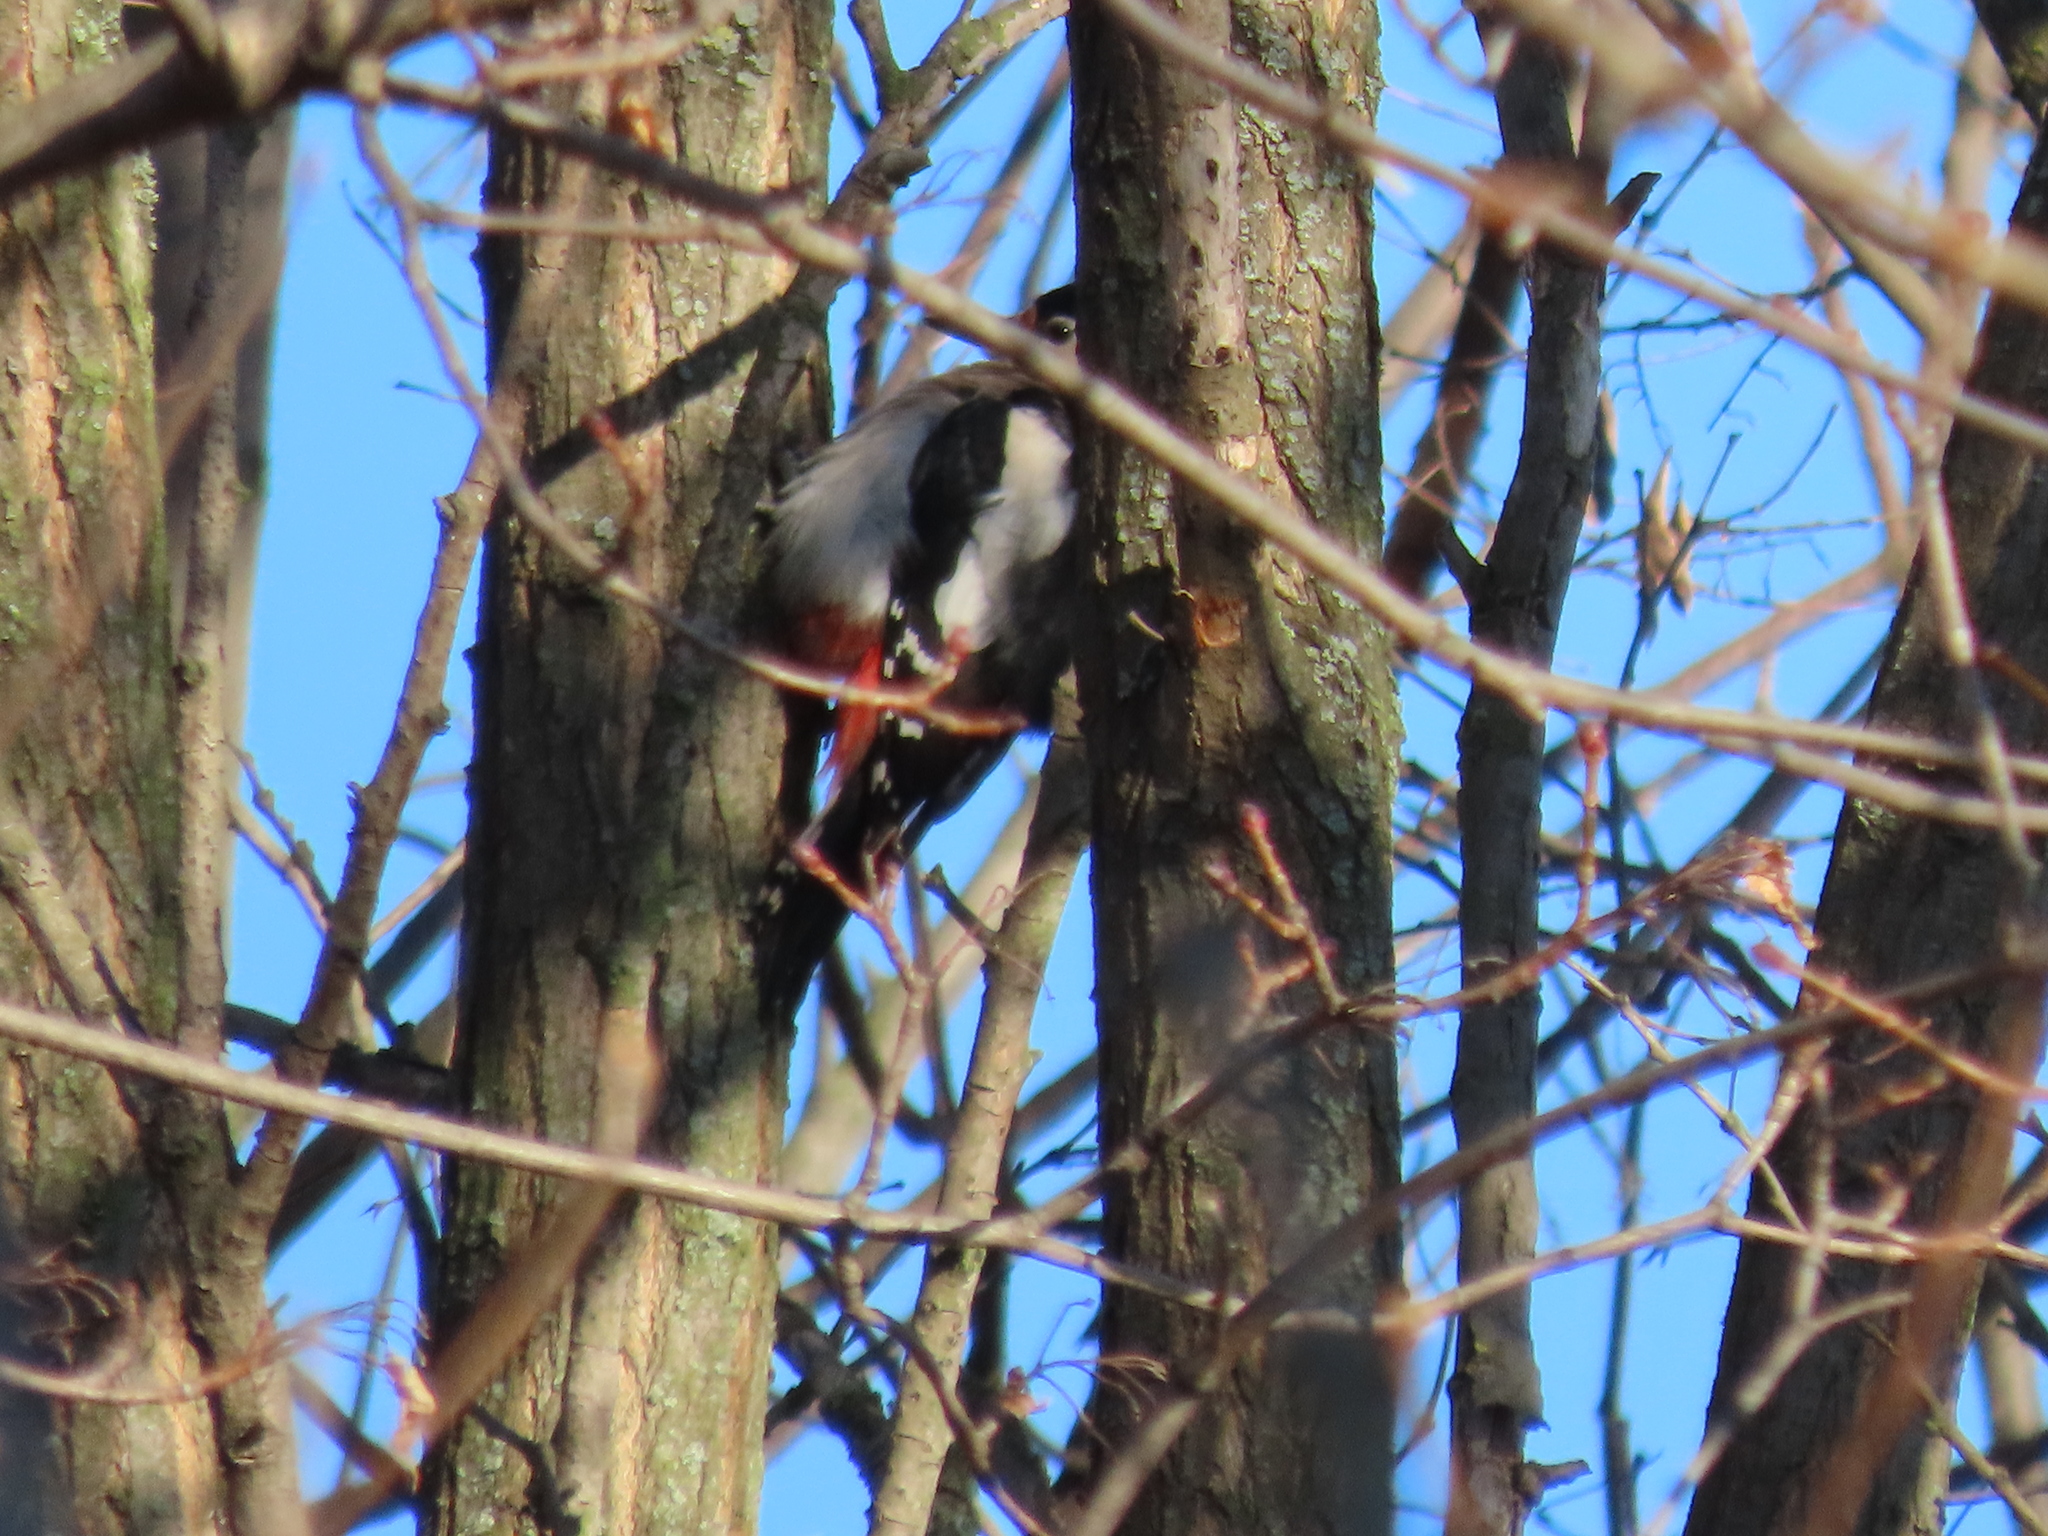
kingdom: Animalia
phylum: Chordata
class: Aves
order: Piciformes
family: Picidae
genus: Dendrocopos
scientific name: Dendrocopos major
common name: Great spotted woodpecker
